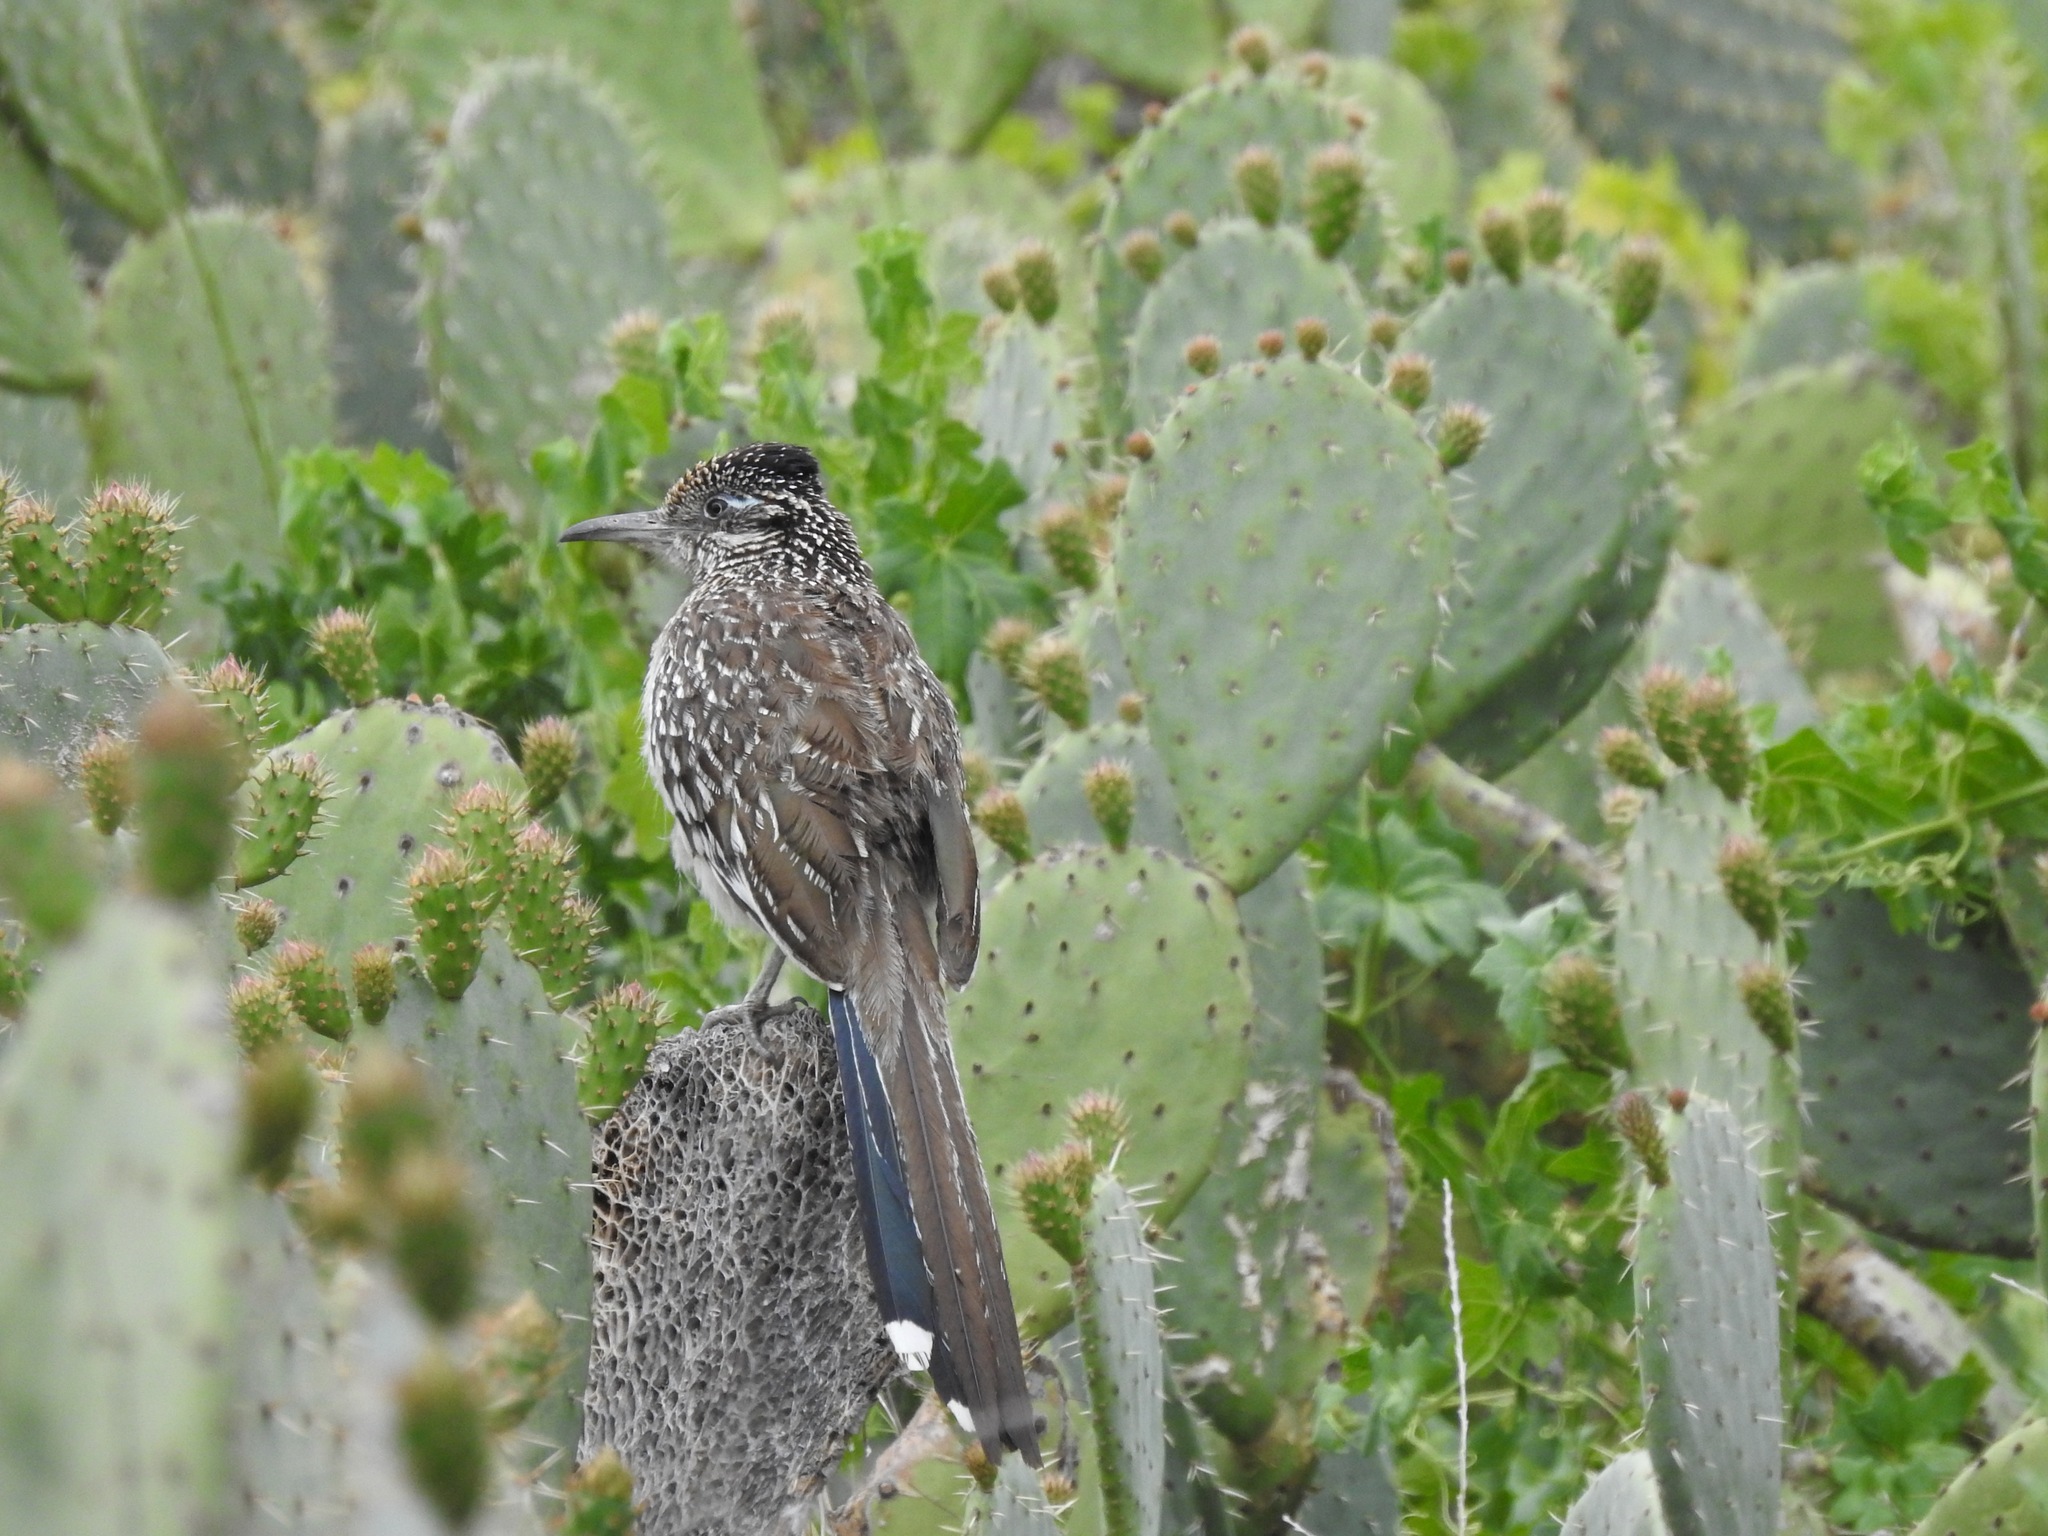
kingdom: Animalia
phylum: Chordata
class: Aves
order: Cuculiformes
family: Cuculidae
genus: Geococcyx
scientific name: Geococcyx californianus
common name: Greater roadrunner
